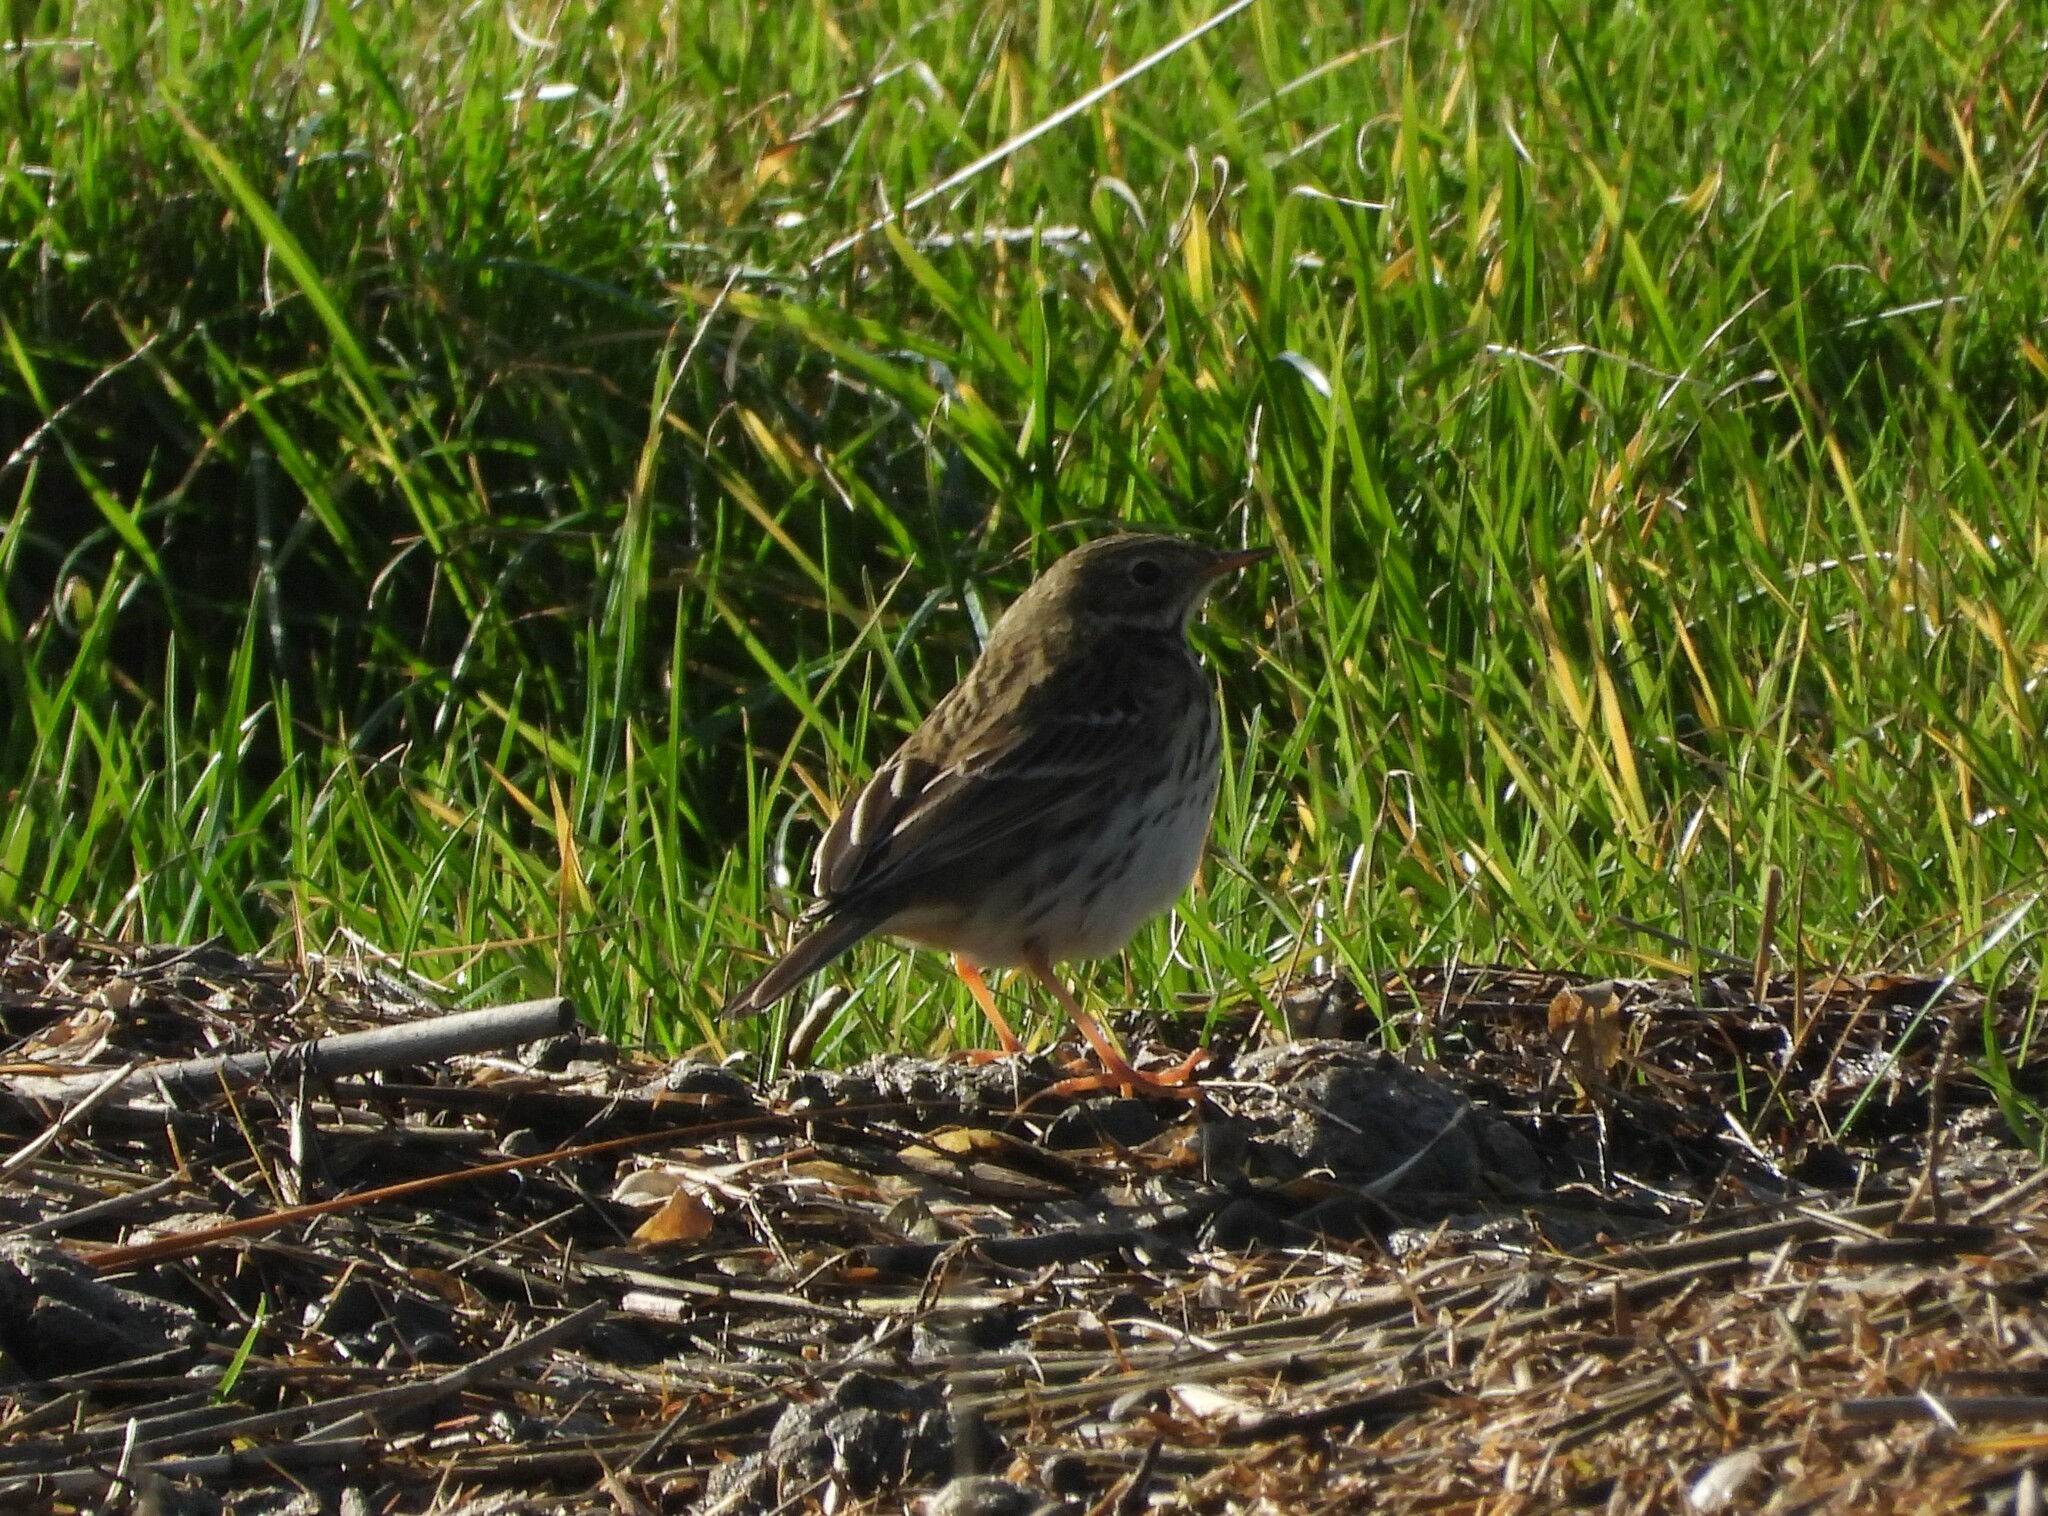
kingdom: Animalia
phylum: Chordata
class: Aves
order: Passeriformes
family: Motacillidae
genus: Anthus
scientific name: Anthus pratensis
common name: Meadow pipit
